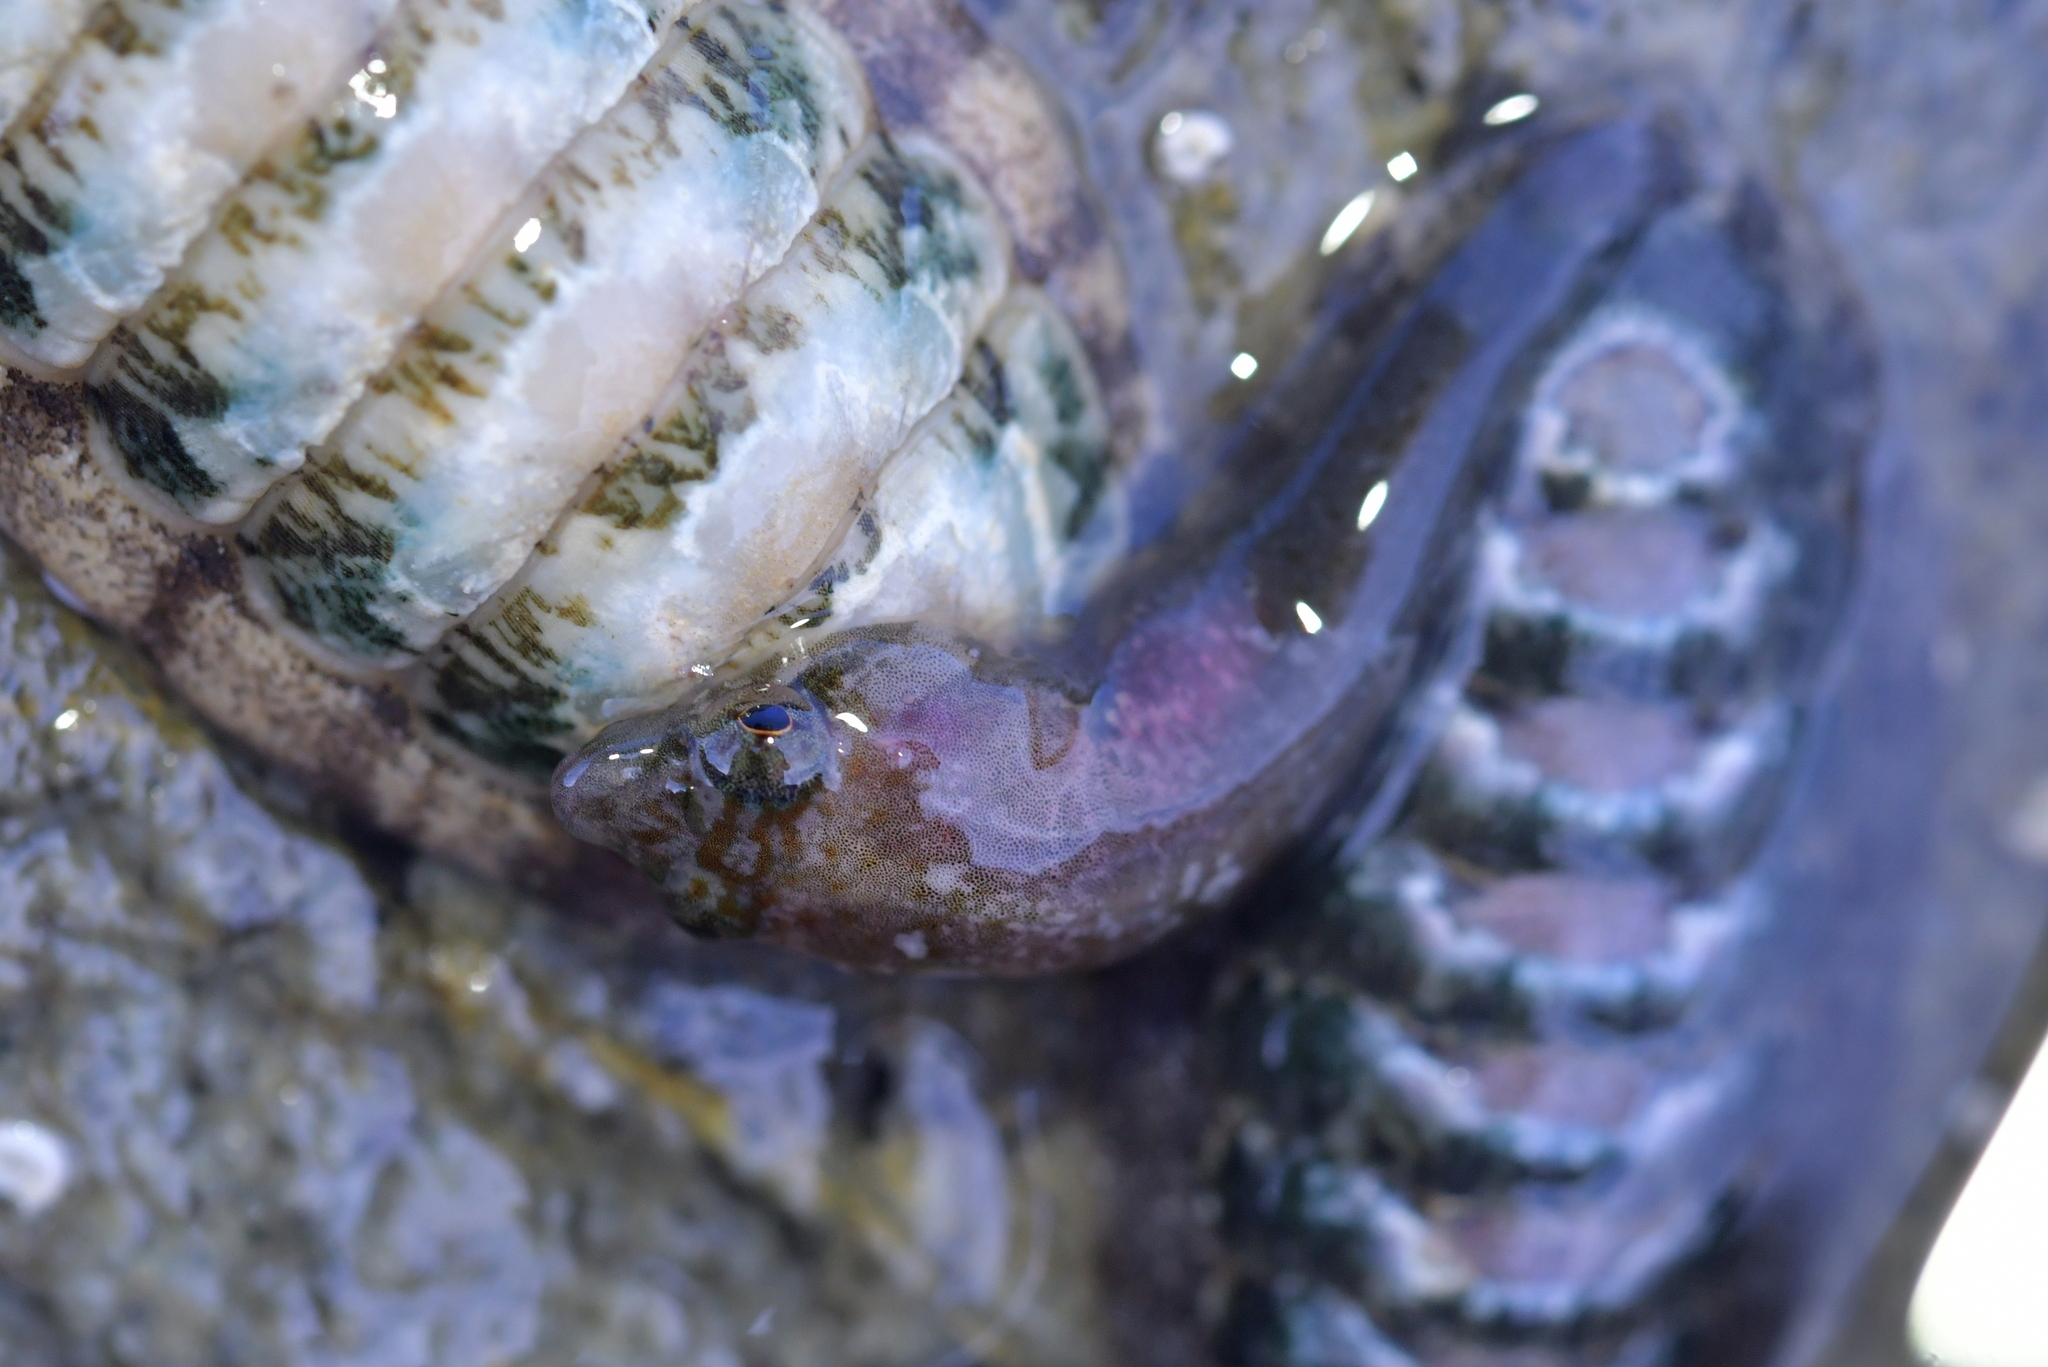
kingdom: Animalia
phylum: Chordata
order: Gobiesociformes
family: Gobiesocidae
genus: Trachelochismus
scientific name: Trachelochismus melobesia
